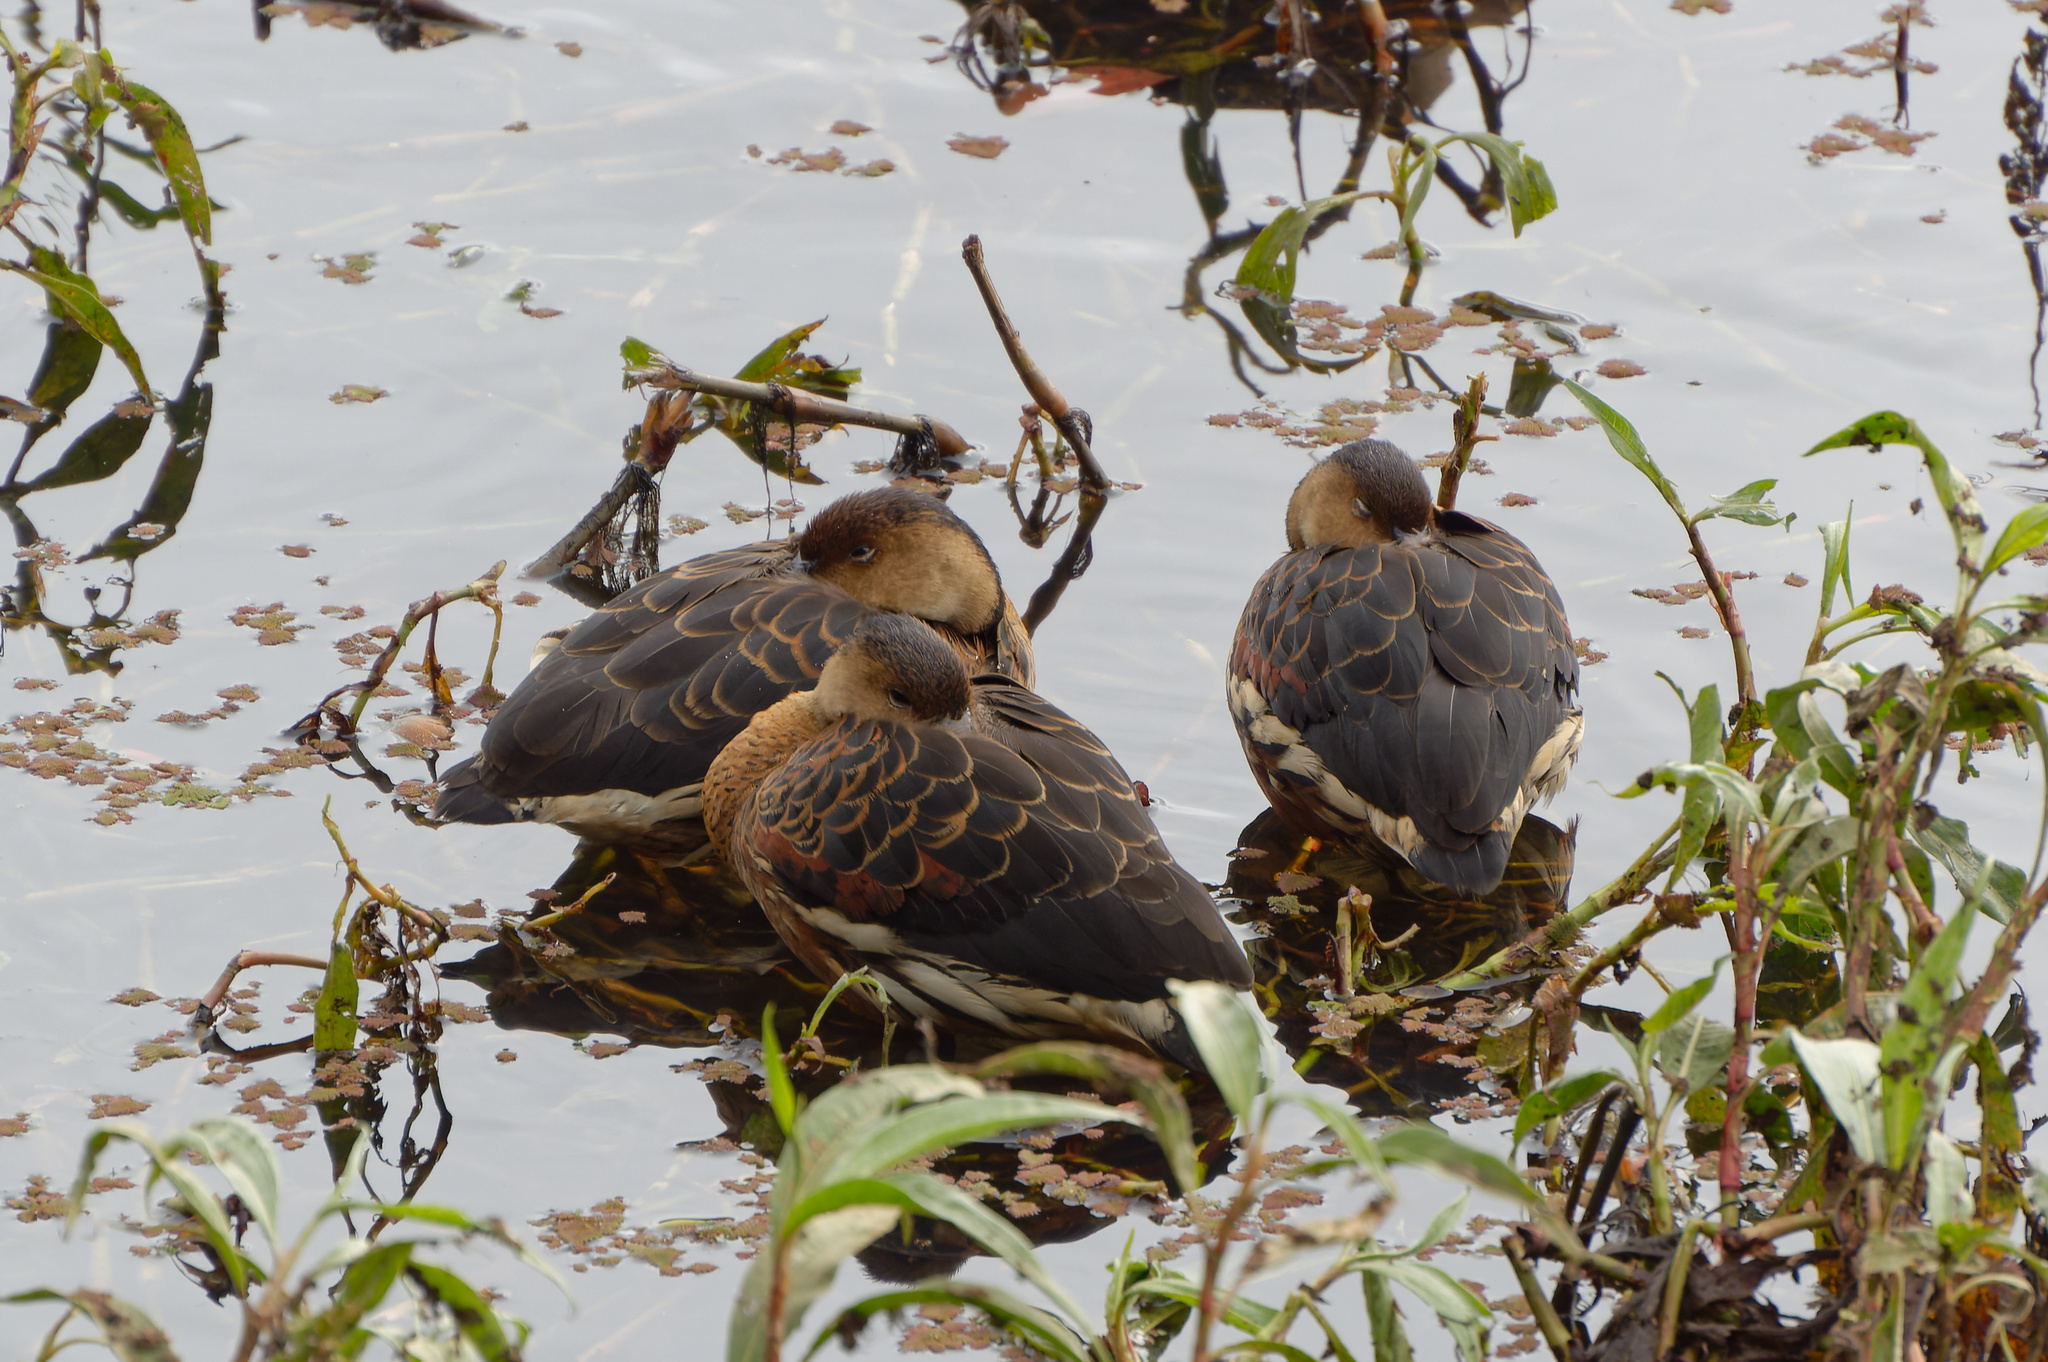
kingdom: Animalia
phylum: Chordata
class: Aves
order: Anseriformes
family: Anatidae
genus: Dendrocygna
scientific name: Dendrocygna arcuata
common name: Wandering whistling-duck
